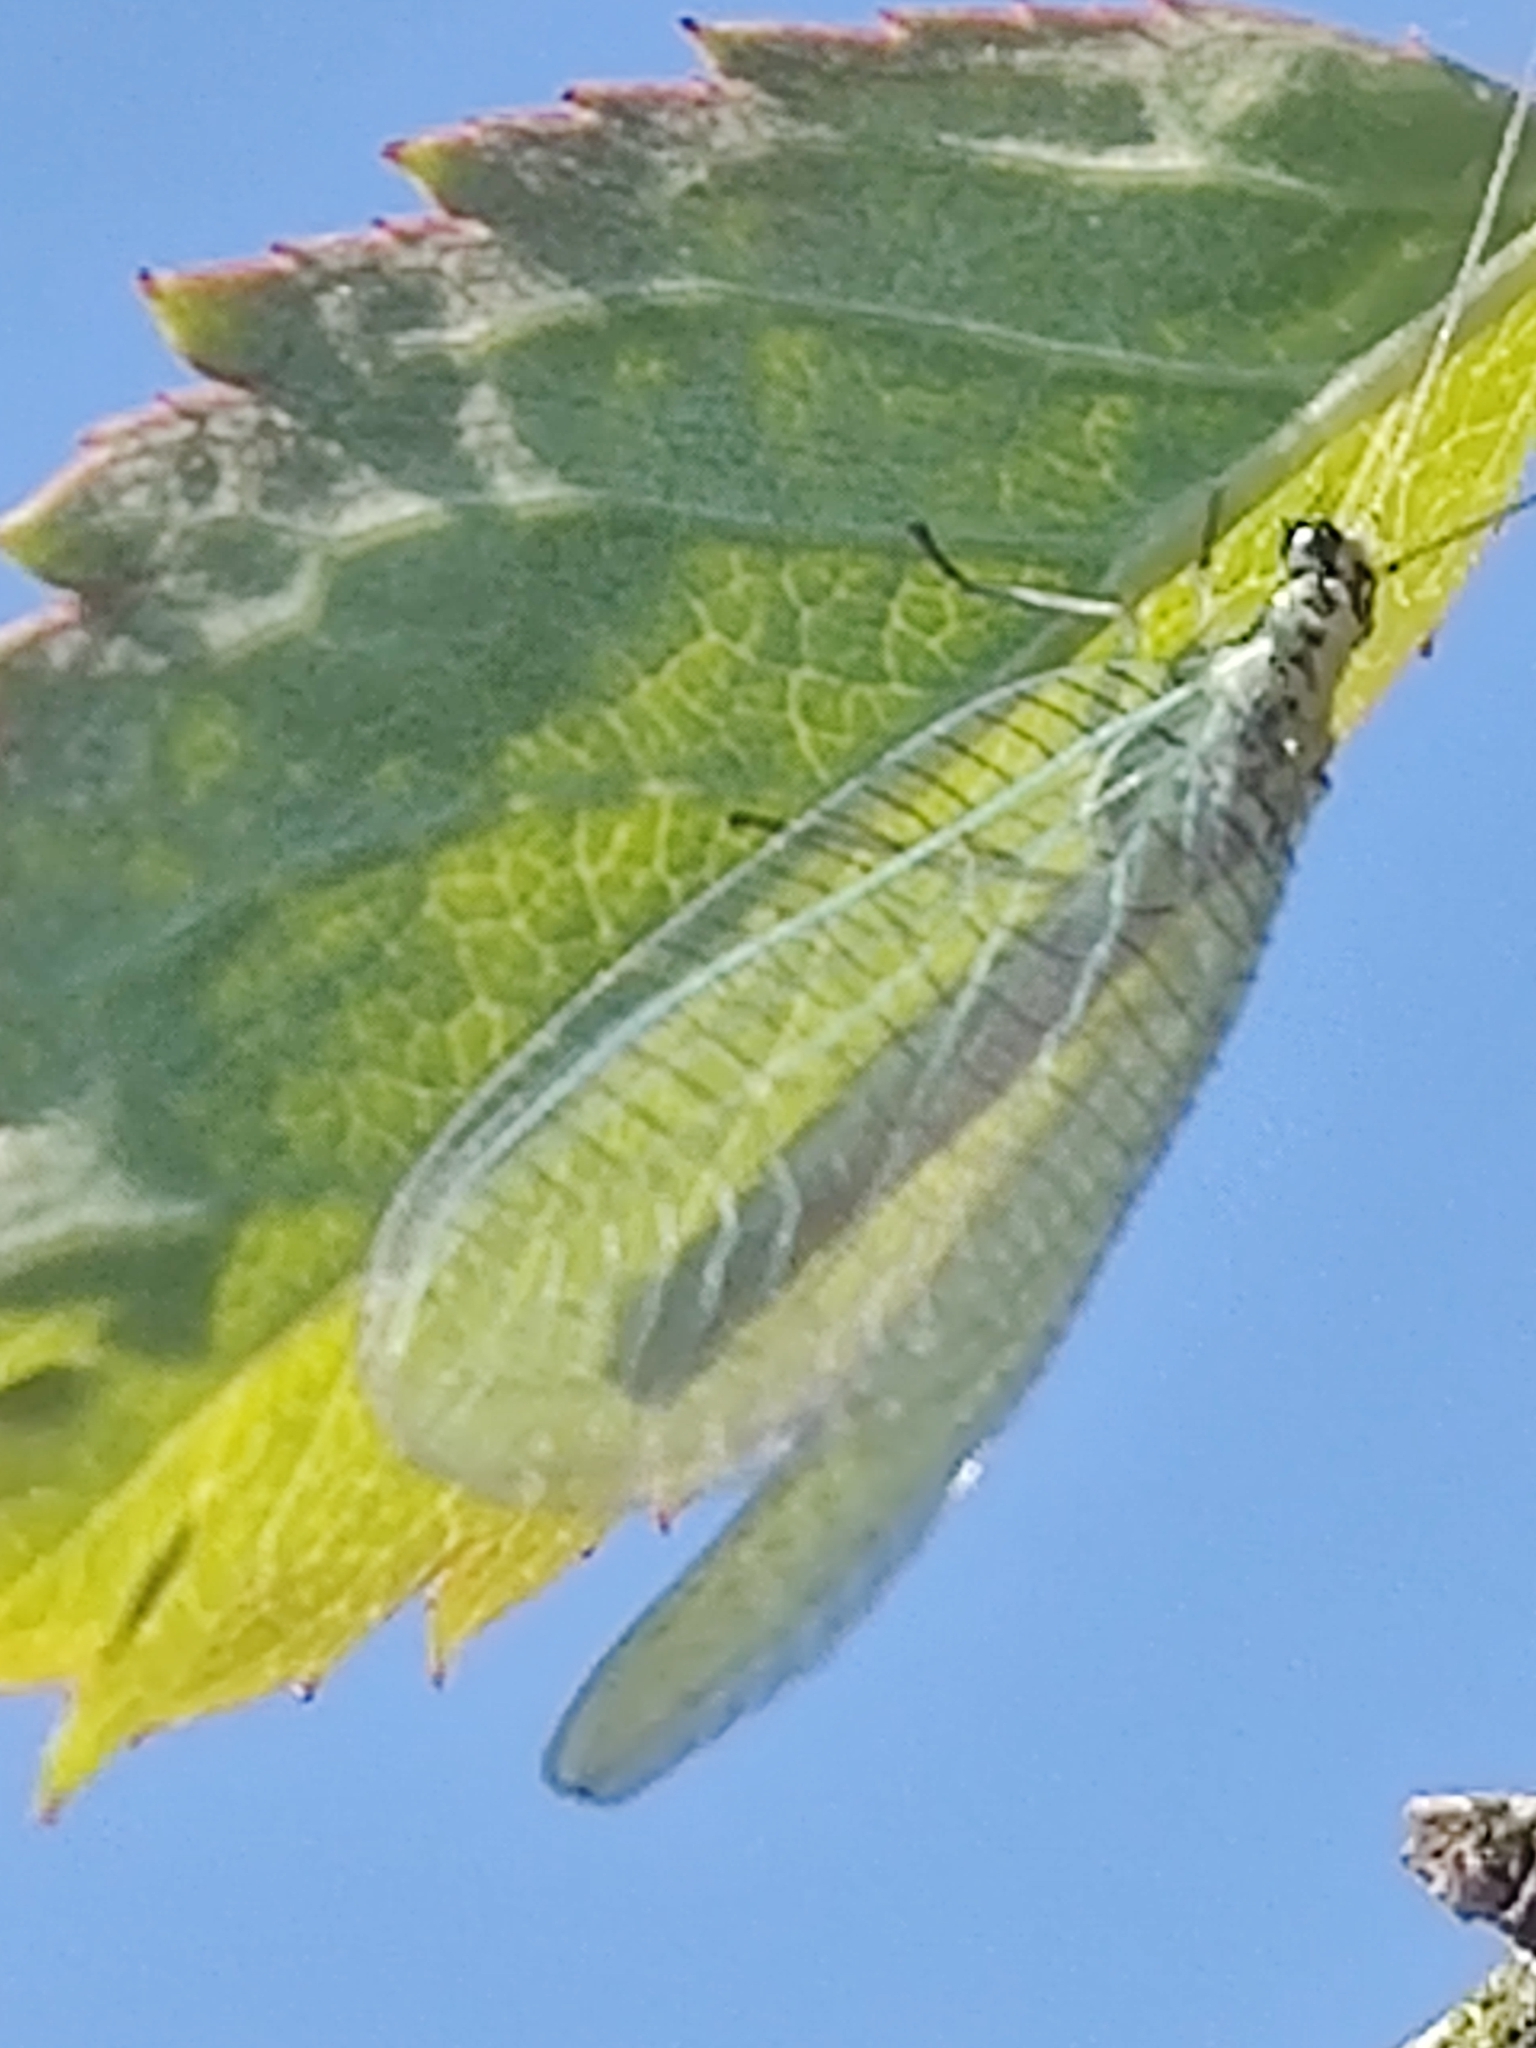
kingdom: Animalia
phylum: Arthropoda
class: Insecta
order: Neuroptera
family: Chrysopidae
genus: Chrysopa
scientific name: Chrysopa perla
